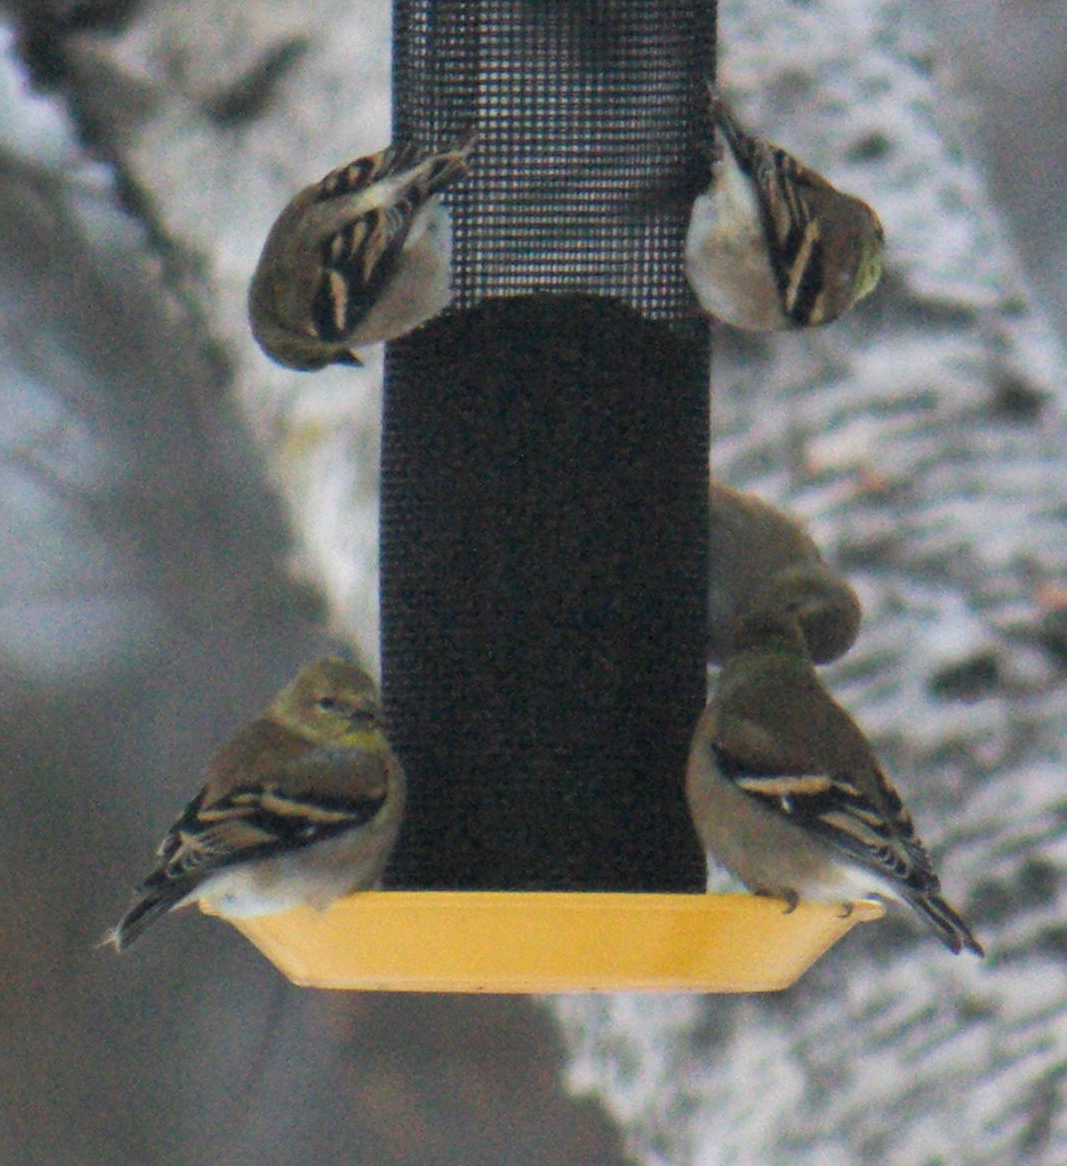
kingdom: Animalia
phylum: Chordata
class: Aves
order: Passeriformes
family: Fringillidae
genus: Spinus
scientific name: Spinus tristis
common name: American goldfinch
